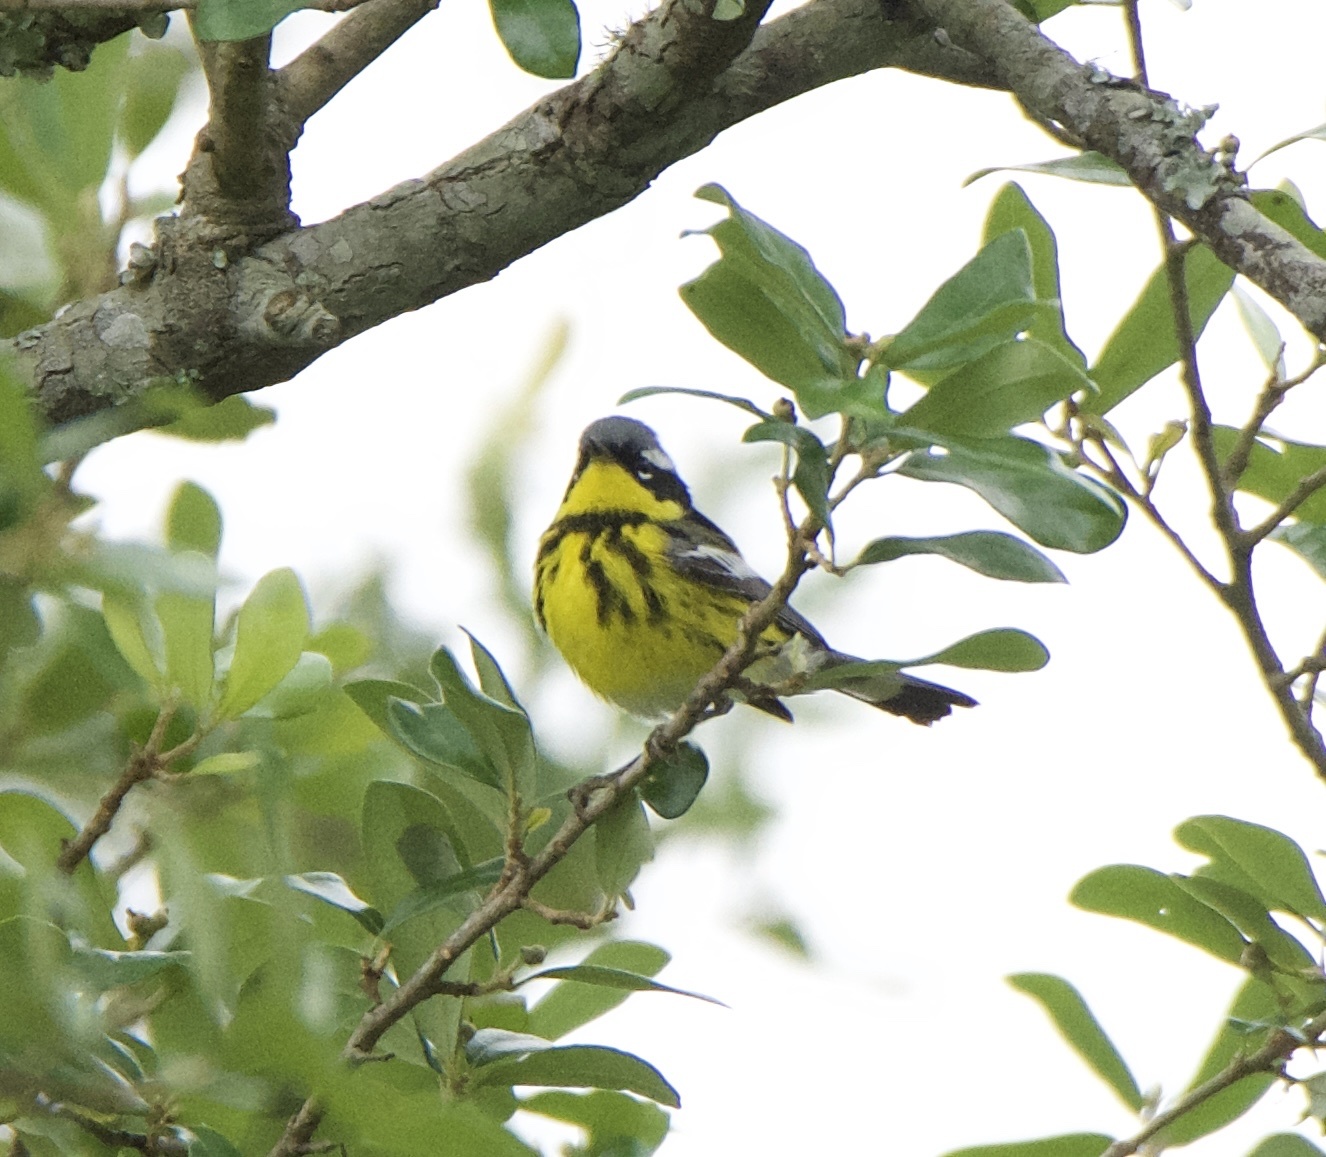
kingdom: Animalia
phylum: Chordata
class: Aves
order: Passeriformes
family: Parulidae
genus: Setophaga
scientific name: Setophaga magnolia
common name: Magnolia warbler
